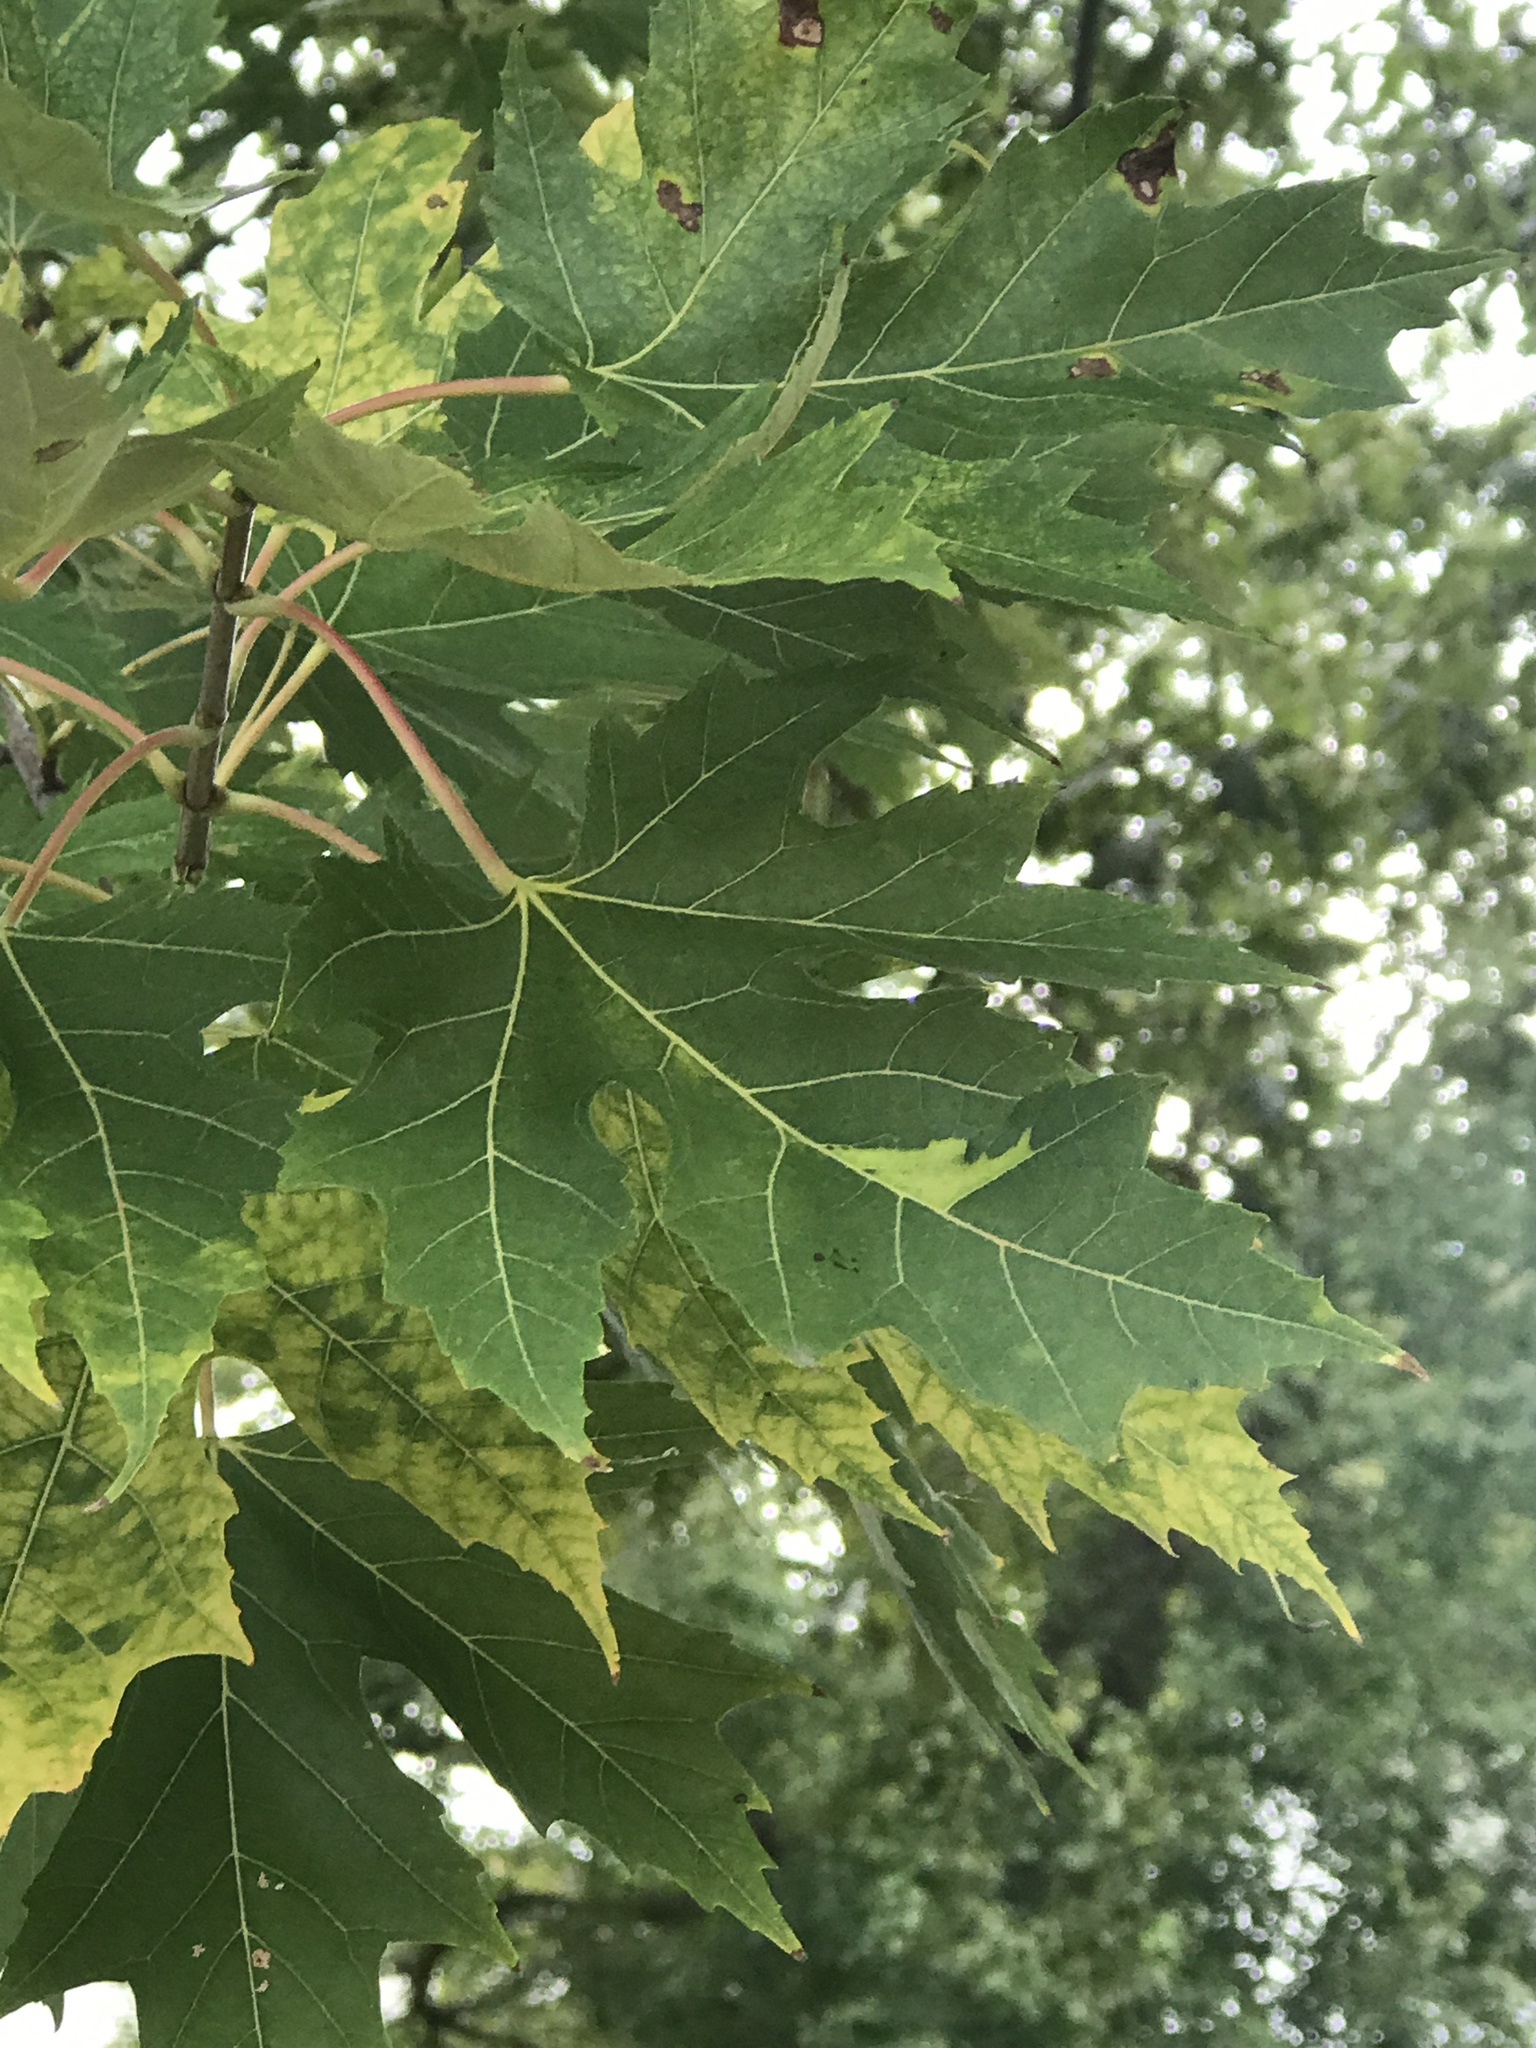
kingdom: Plantae
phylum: Tracheophyta
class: Magnoliopsida
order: Sapindales
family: Sapindaceae
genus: Acer
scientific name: Acer saccharinum
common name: Silver maple
